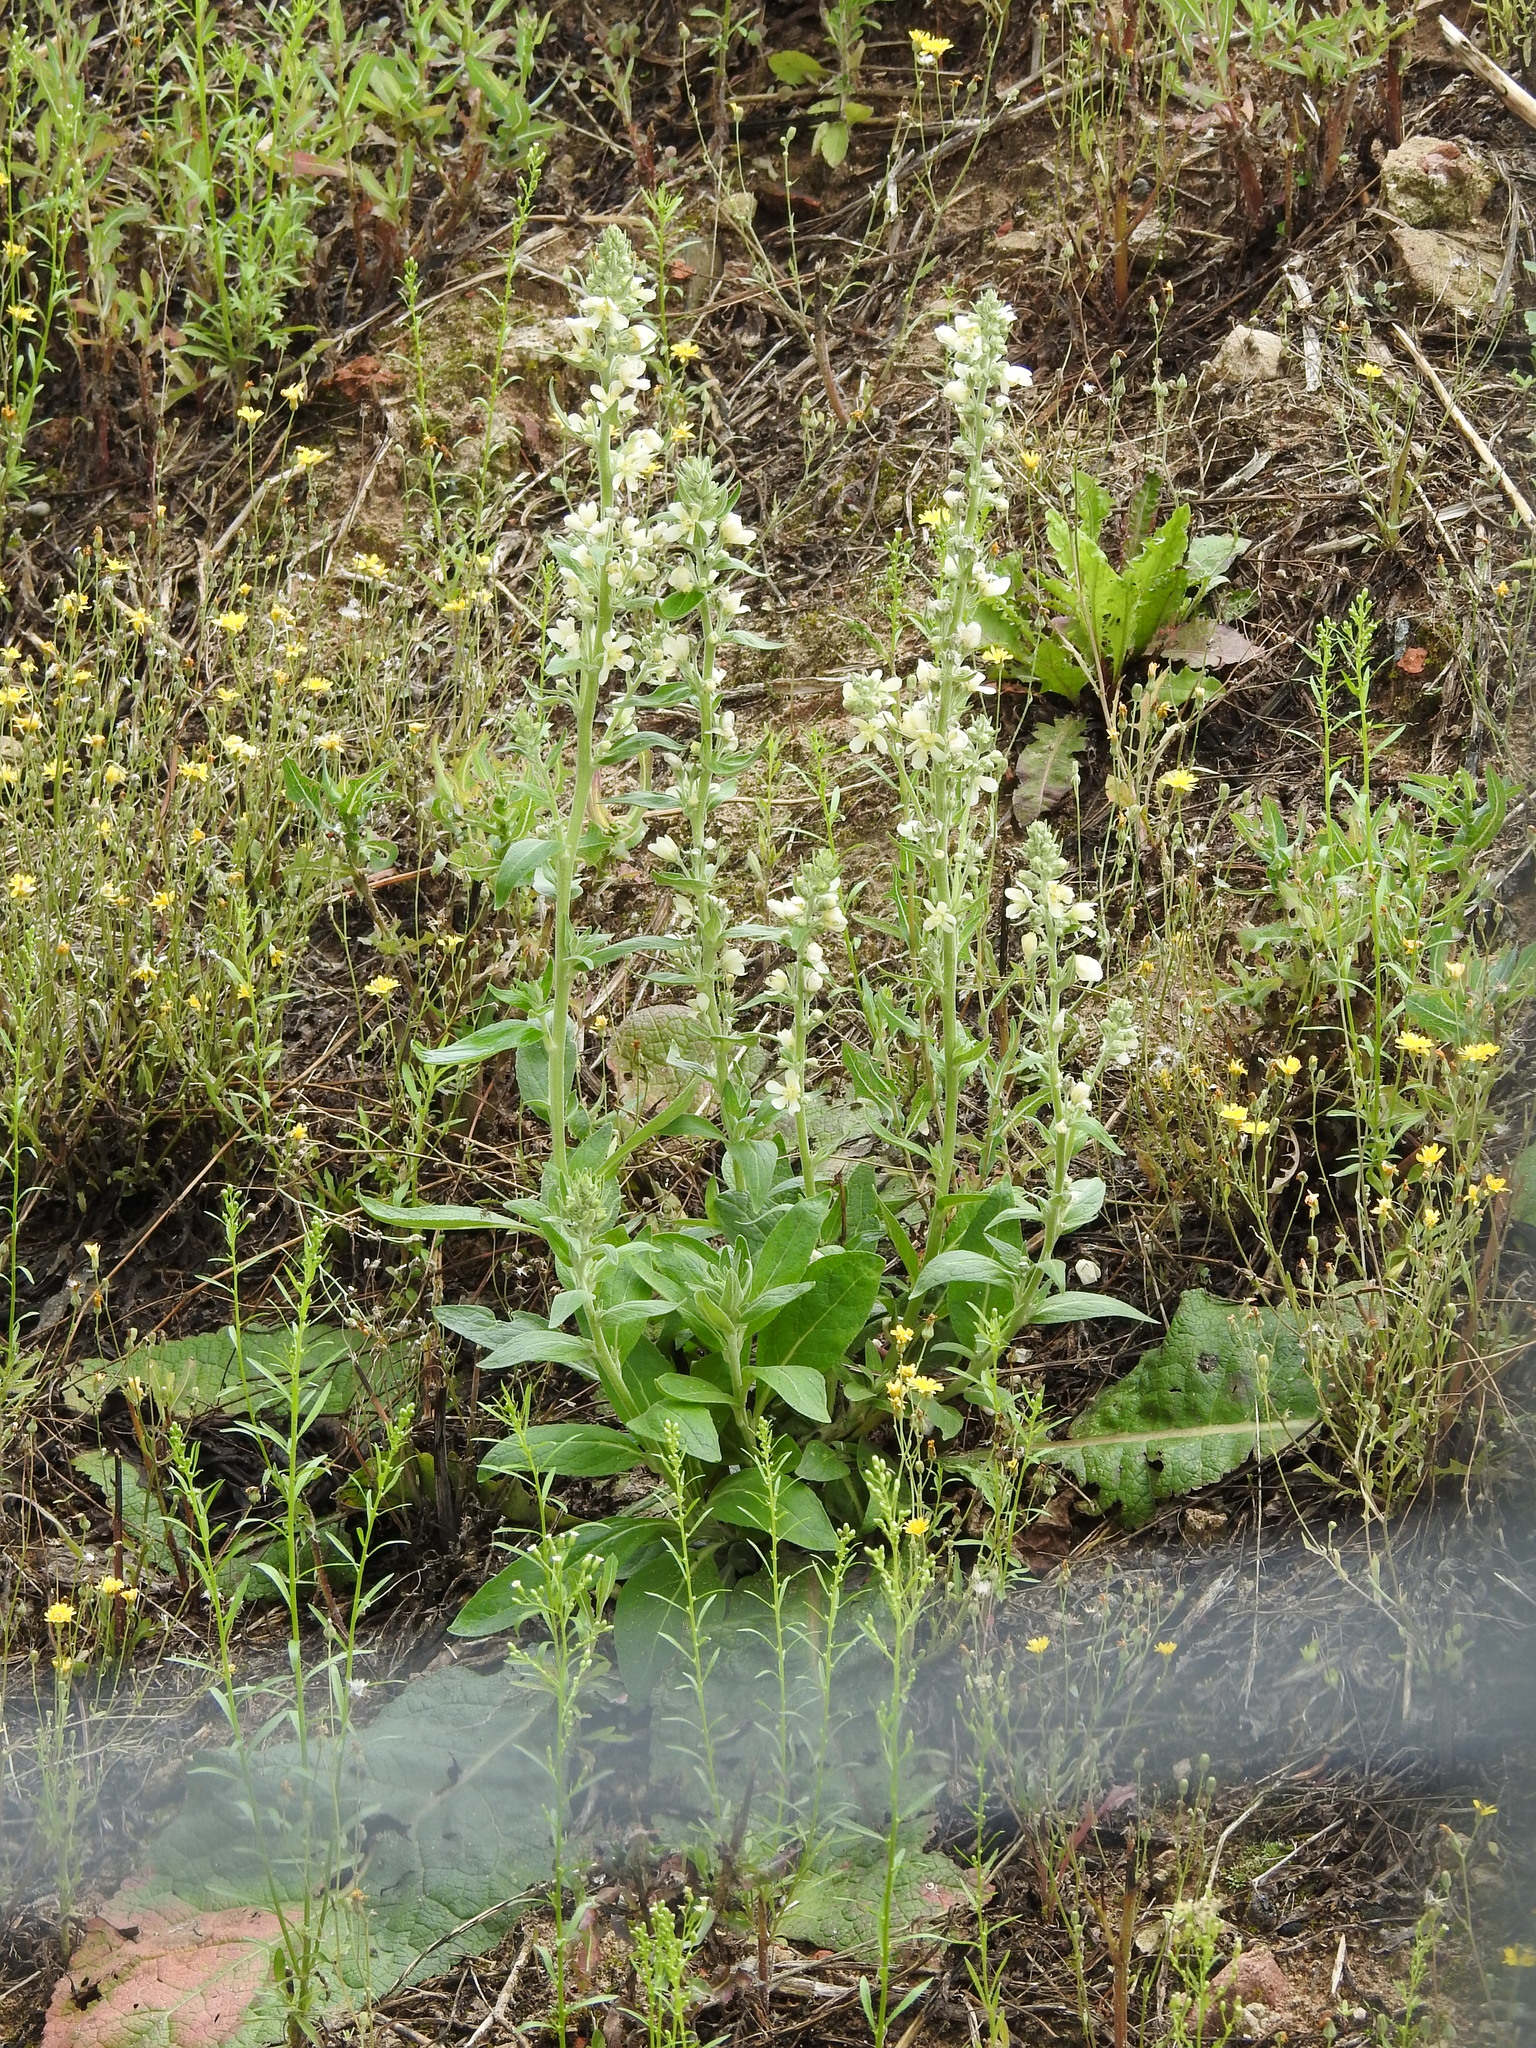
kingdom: Plantae
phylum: Tracheophyta
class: Magnoliopsida
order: Lamiales
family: Scrophulariaceae
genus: Verbascum
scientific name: Verbascum lychnitis
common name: White mullein
